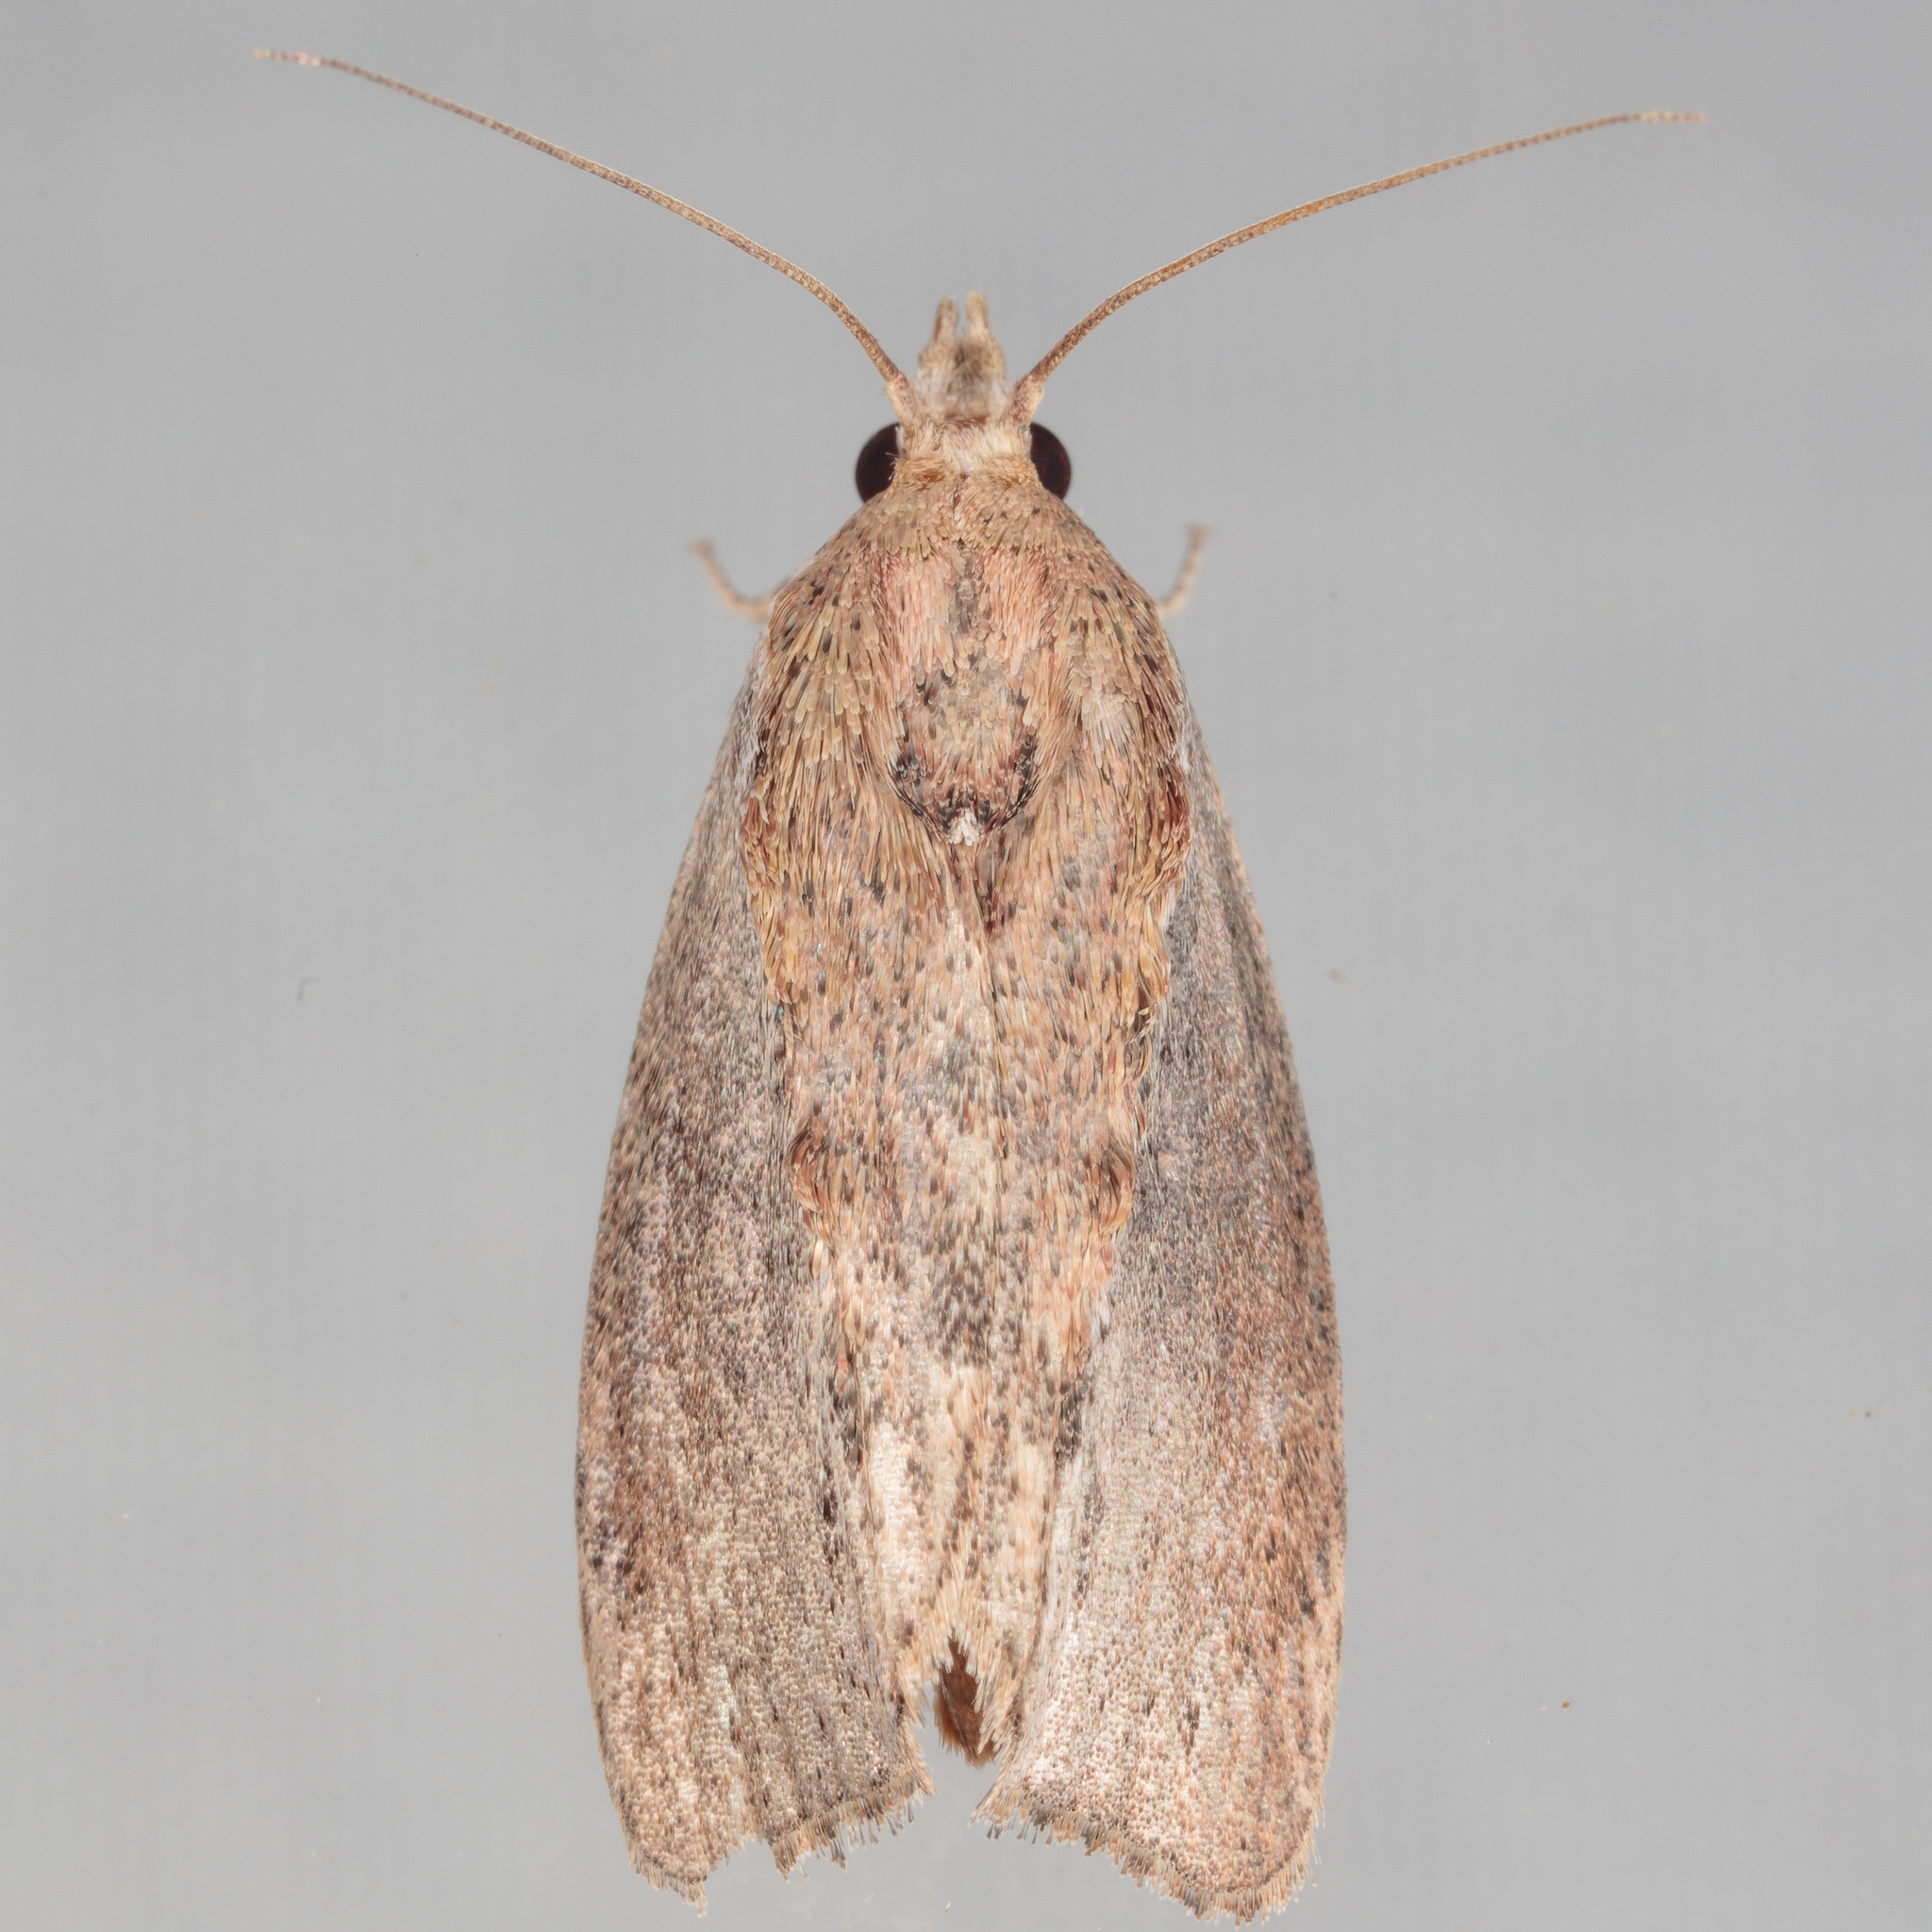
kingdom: Animalia
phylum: Arthropoda
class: Insecta
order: Lepidoptera
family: Pyralidae
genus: Galleria
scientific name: Galleria mellonella
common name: Greater wax moth
